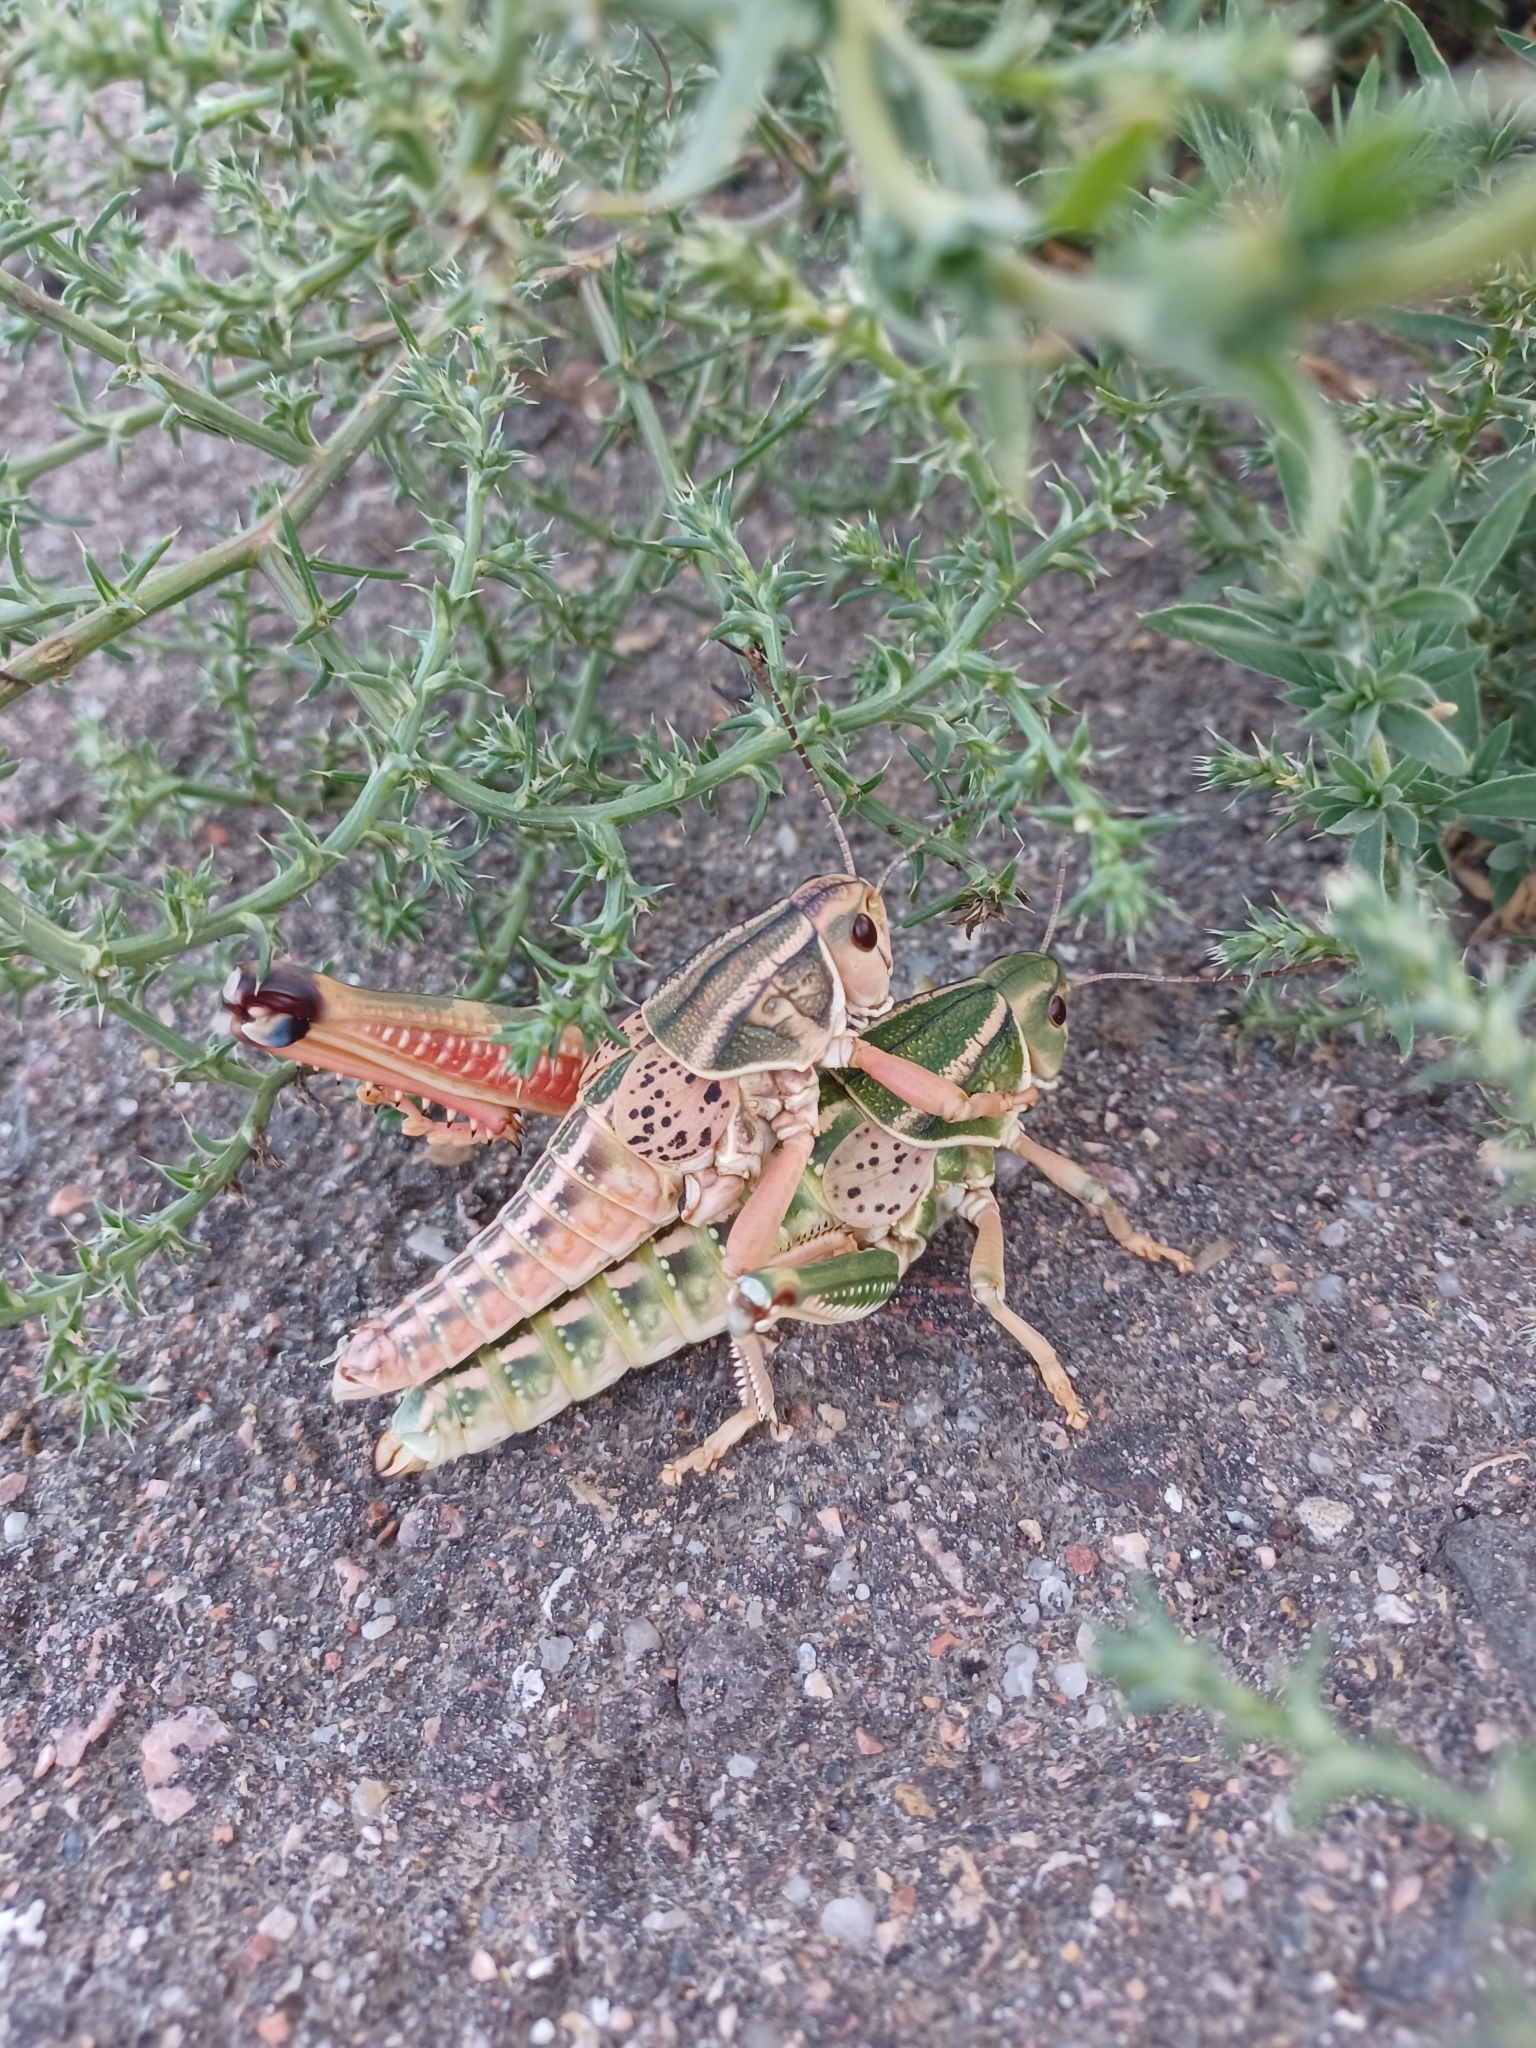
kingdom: Animalia
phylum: Arthropoda
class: Insecta
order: Orthoptera
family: Romaleidae
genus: Brachystola
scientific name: Brachystola magna
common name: Plains lubber grasshopper
